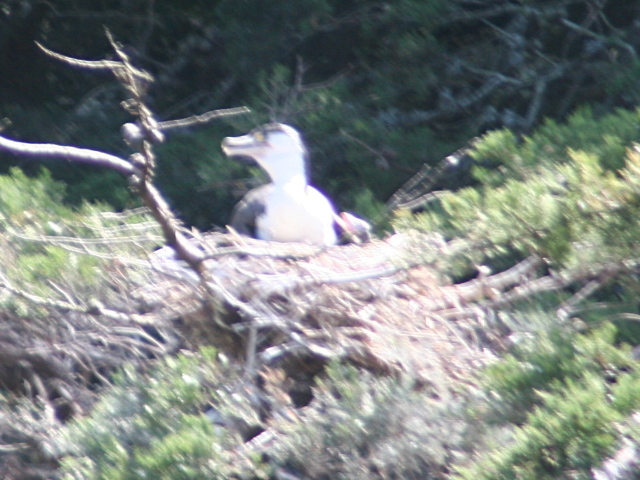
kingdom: Animalia
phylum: Chordata
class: Aves
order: Suliformes
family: Phalacrocoracidae
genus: Phalacrocorax
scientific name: Phalacrocorax varius
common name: Pied cormorant
